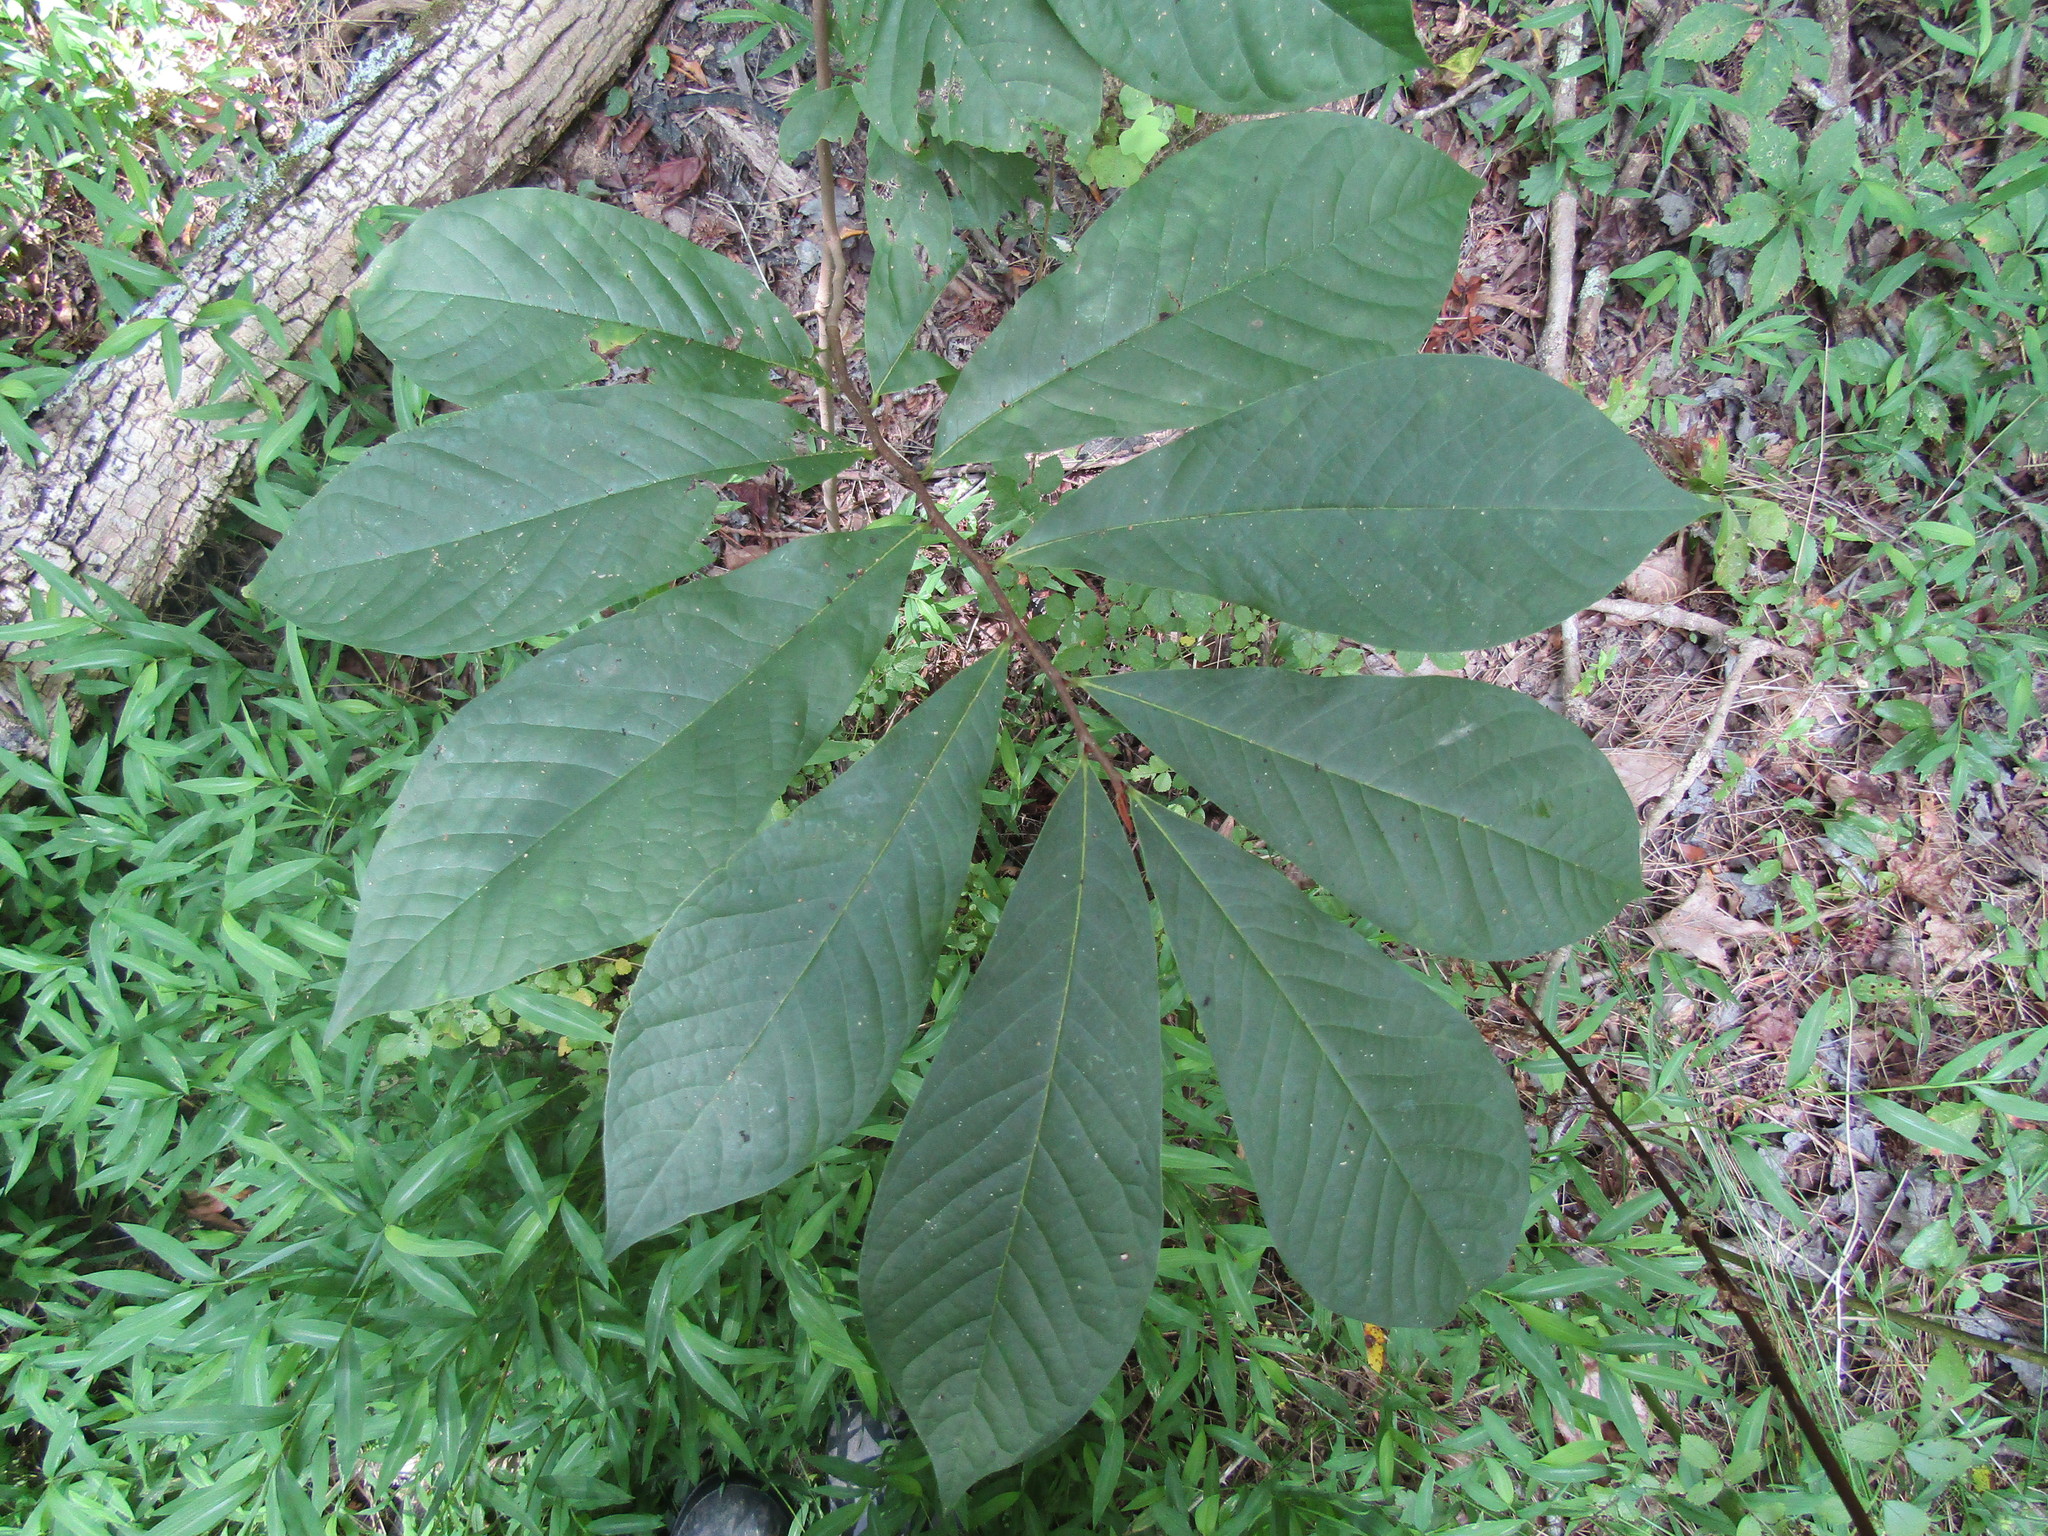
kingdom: Plantae
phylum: Tracheophyta
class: Magnoliopsida
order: Magnoliales
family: Annonaceae
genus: Asimina
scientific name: Asimina triloba
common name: Dog-banana
